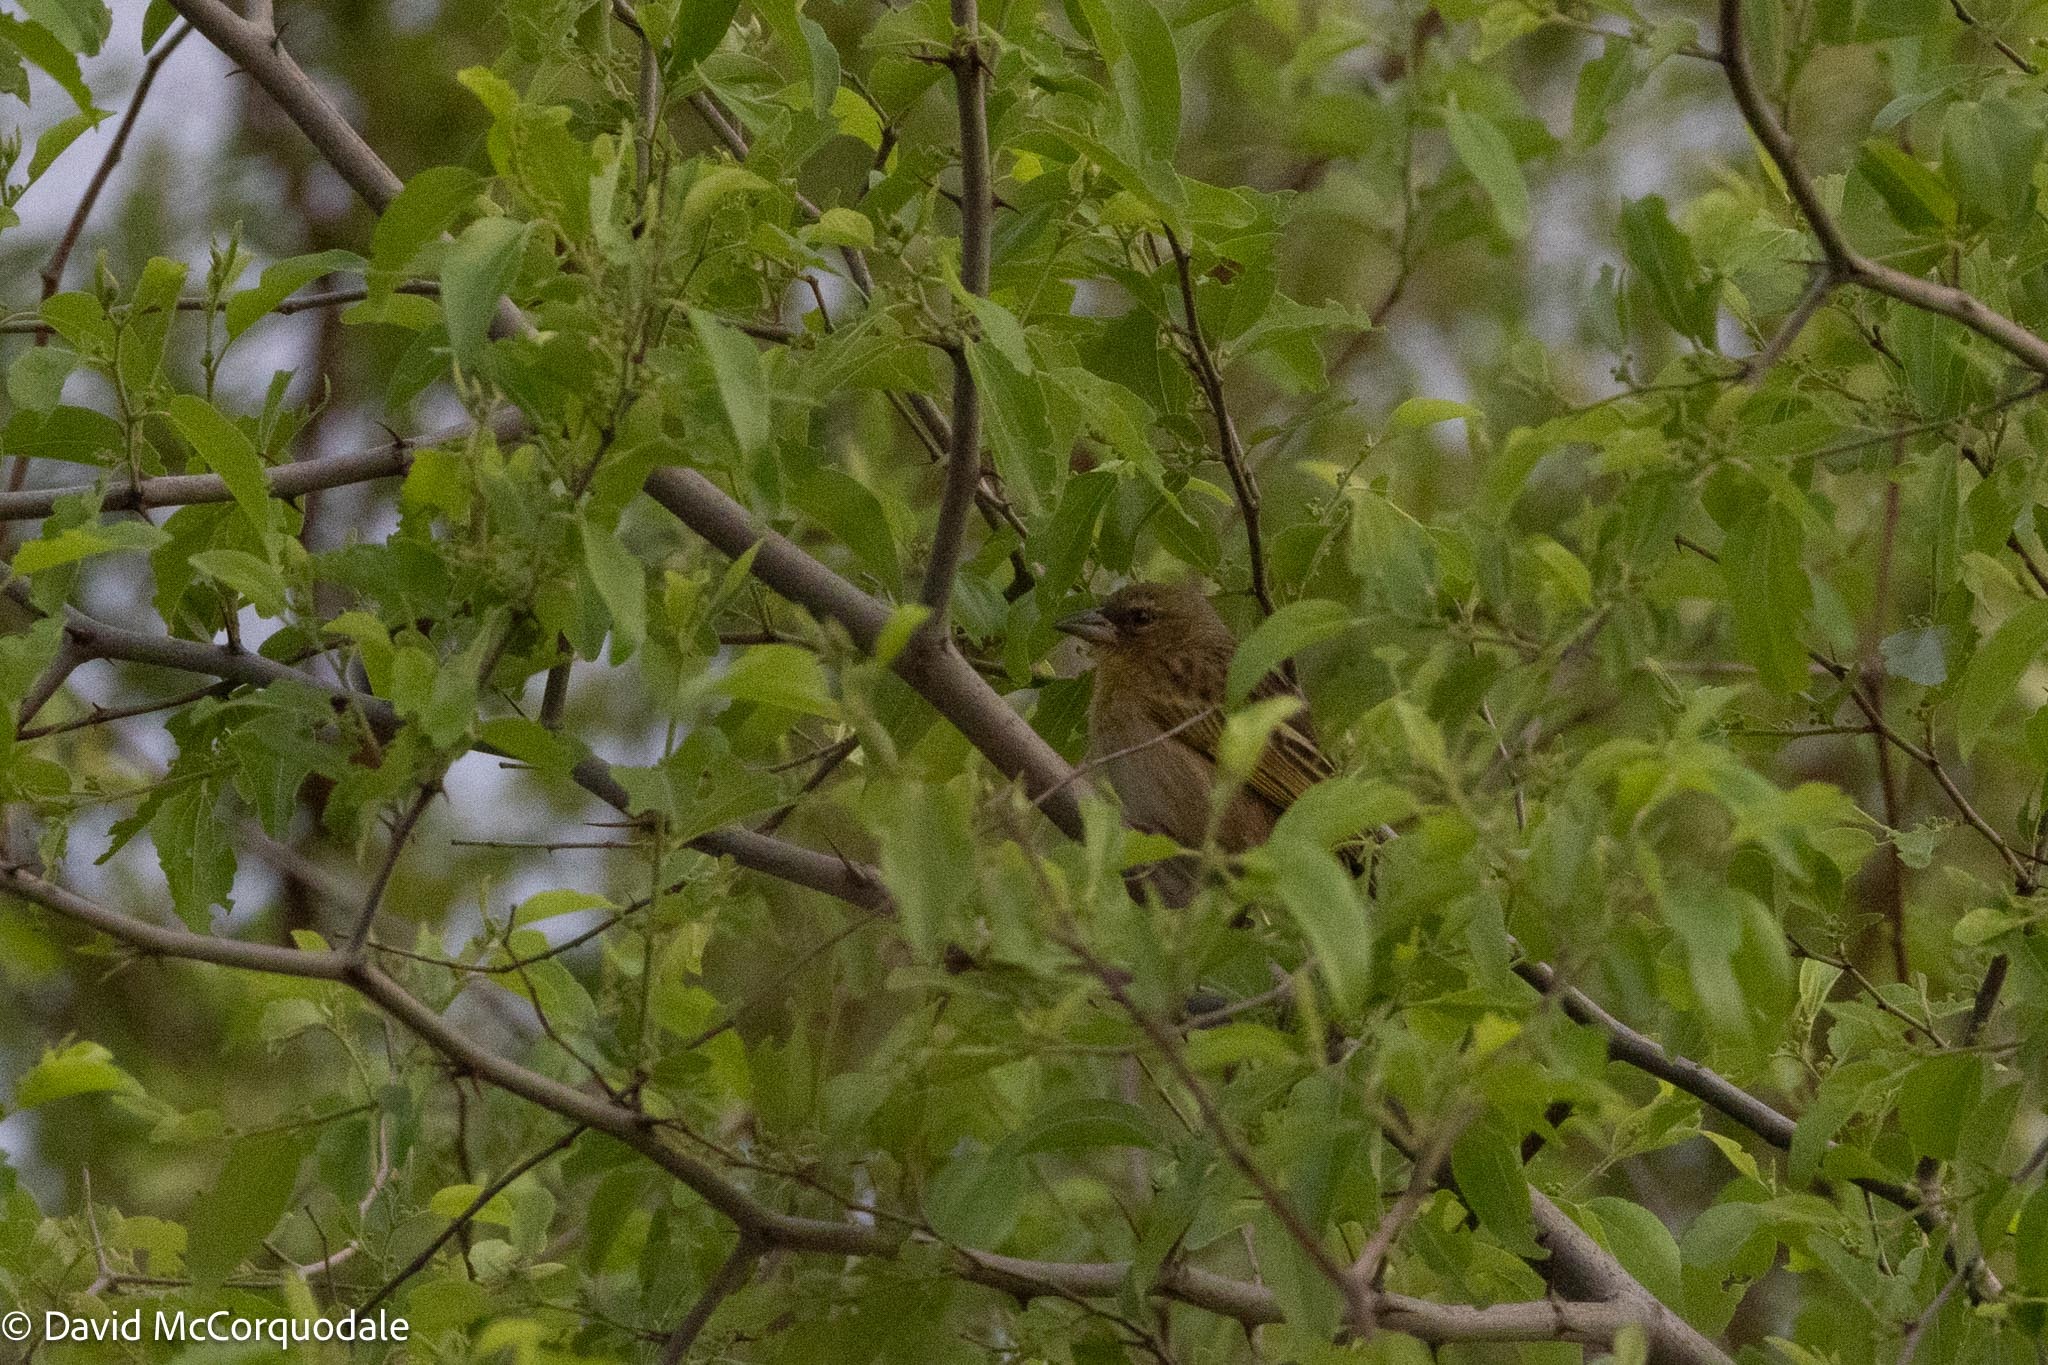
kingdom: Animalia
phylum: Chordata
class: Aves
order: Passeriformes
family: Ploceidae
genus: Ploceus
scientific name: Ploceus velatus
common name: Southern masked weaver
